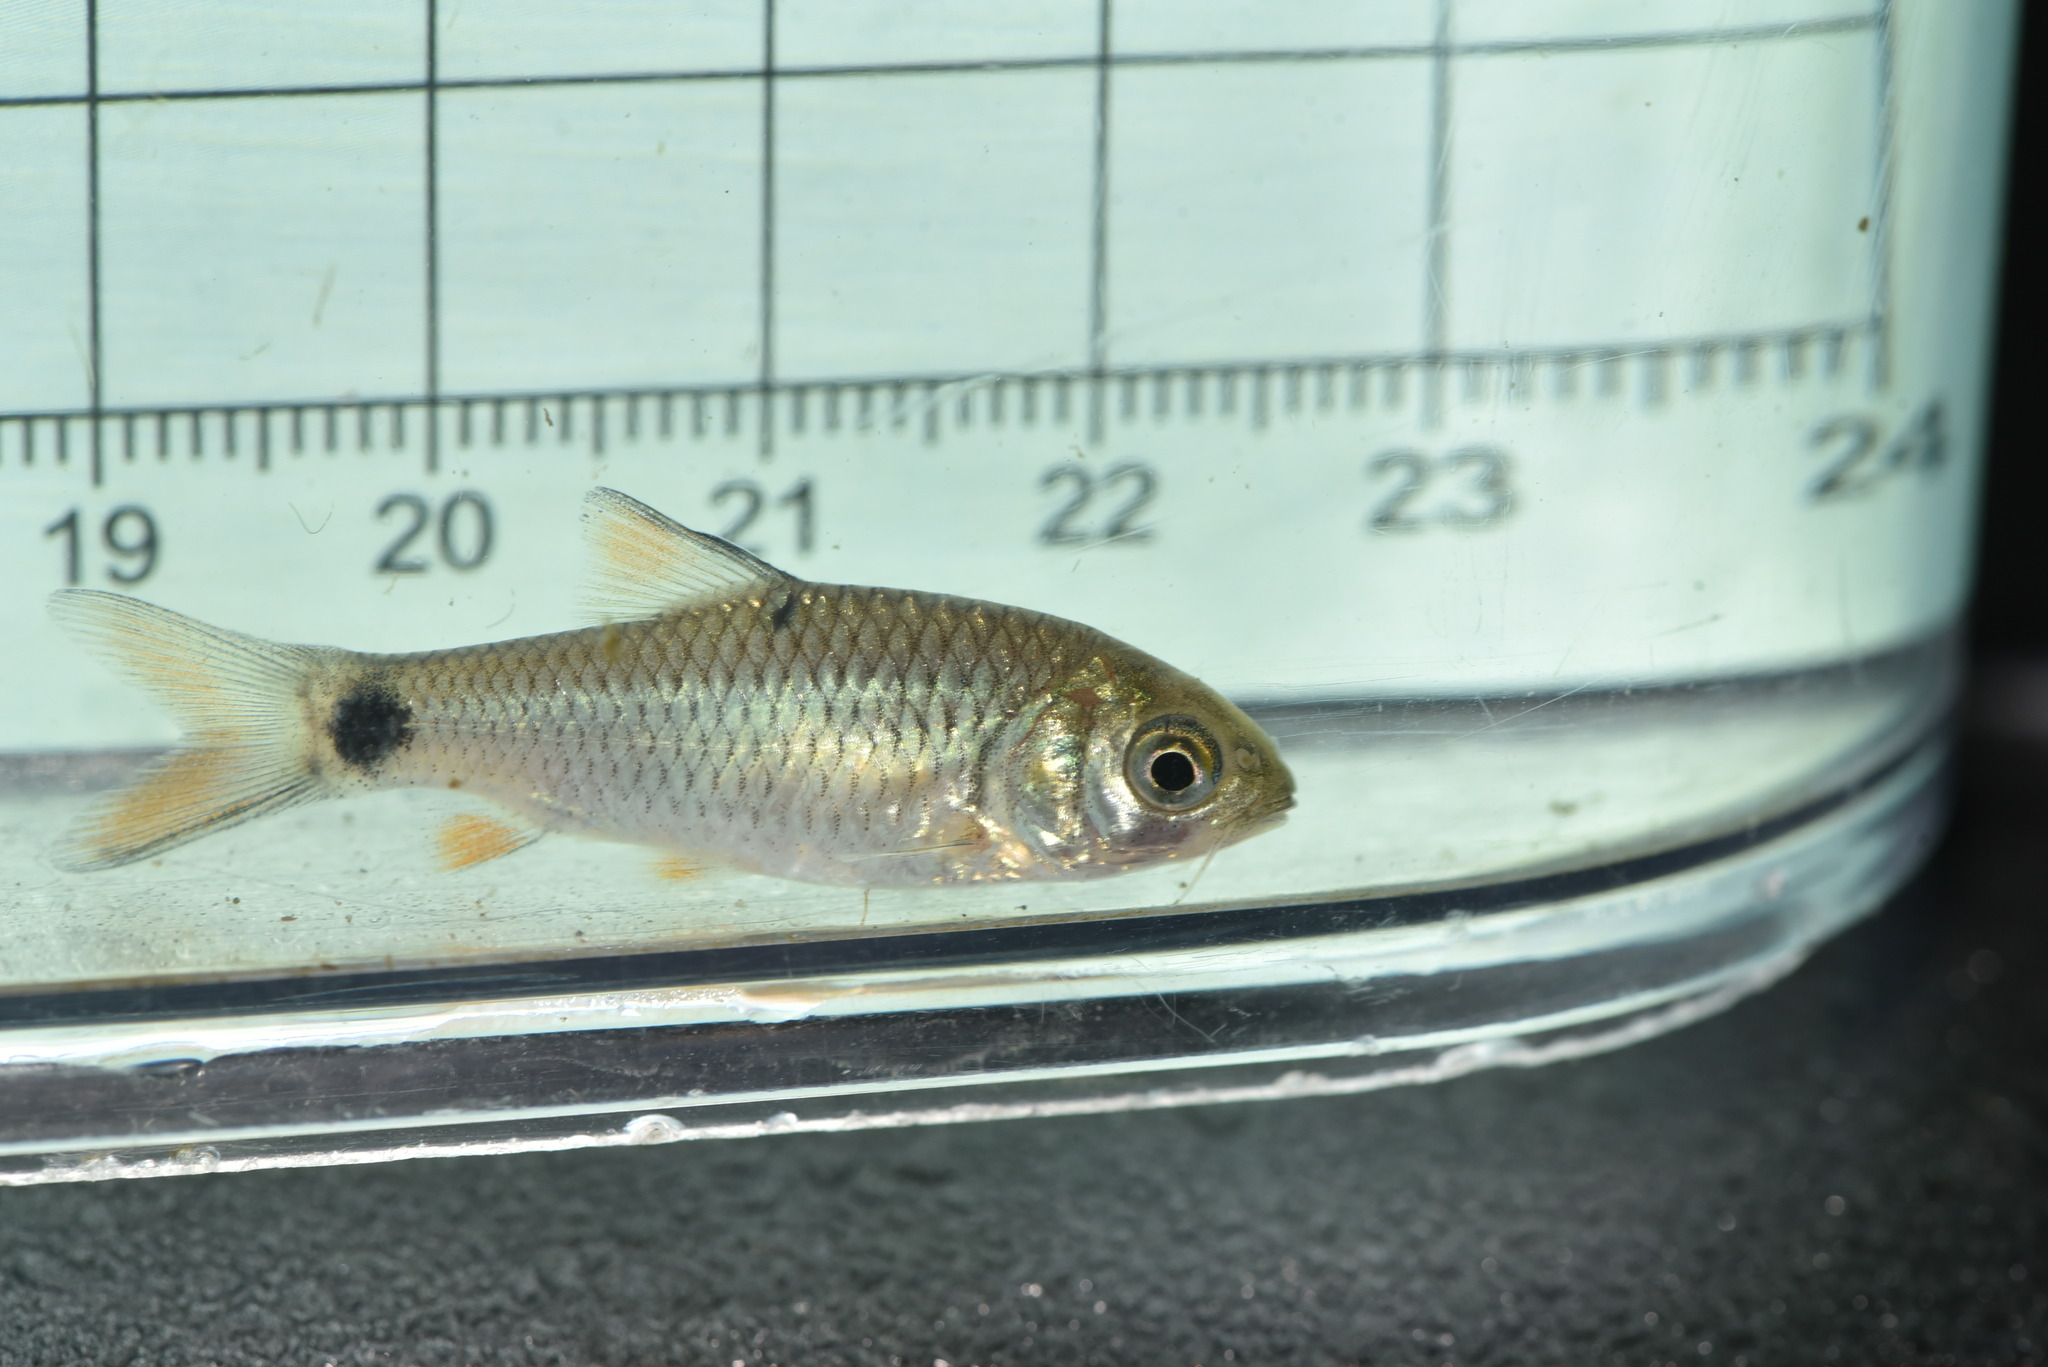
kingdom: Animalia
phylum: Chordata
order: Cypriniformes
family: Cyprinidae
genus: Systomus
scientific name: Systomus orphoides
